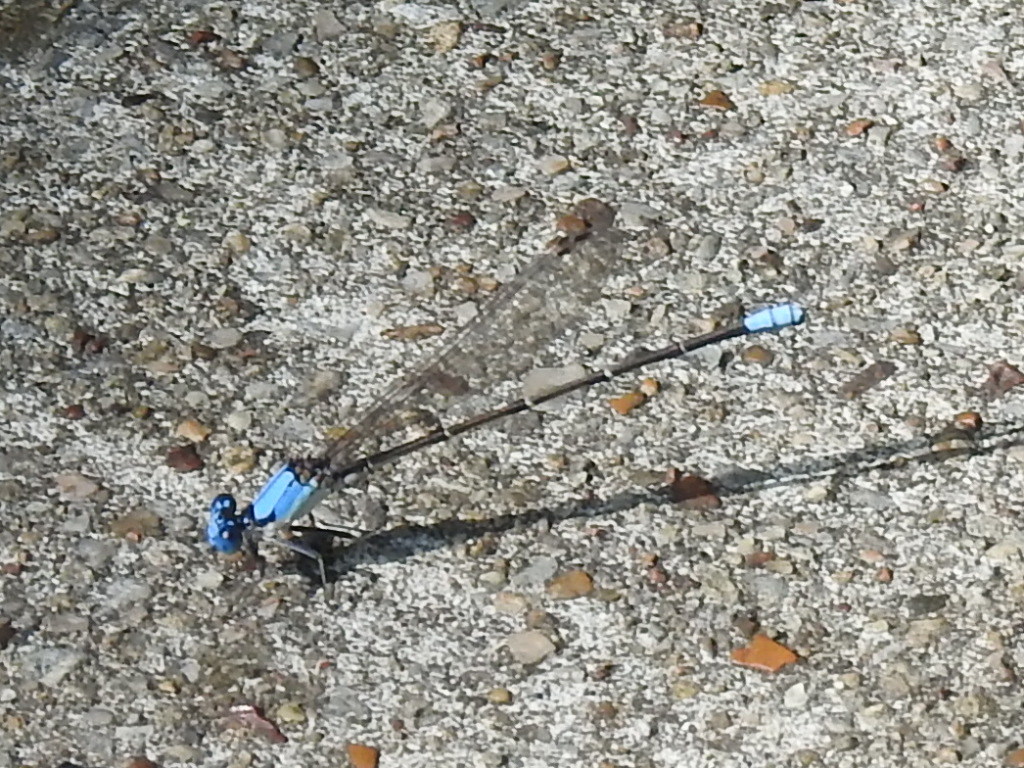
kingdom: Animalia
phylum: Arthropoda
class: Insecta
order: Odonata
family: Coenagrionidae
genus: Argia
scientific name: Argia apicalis
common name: Blue-fronted dancer
